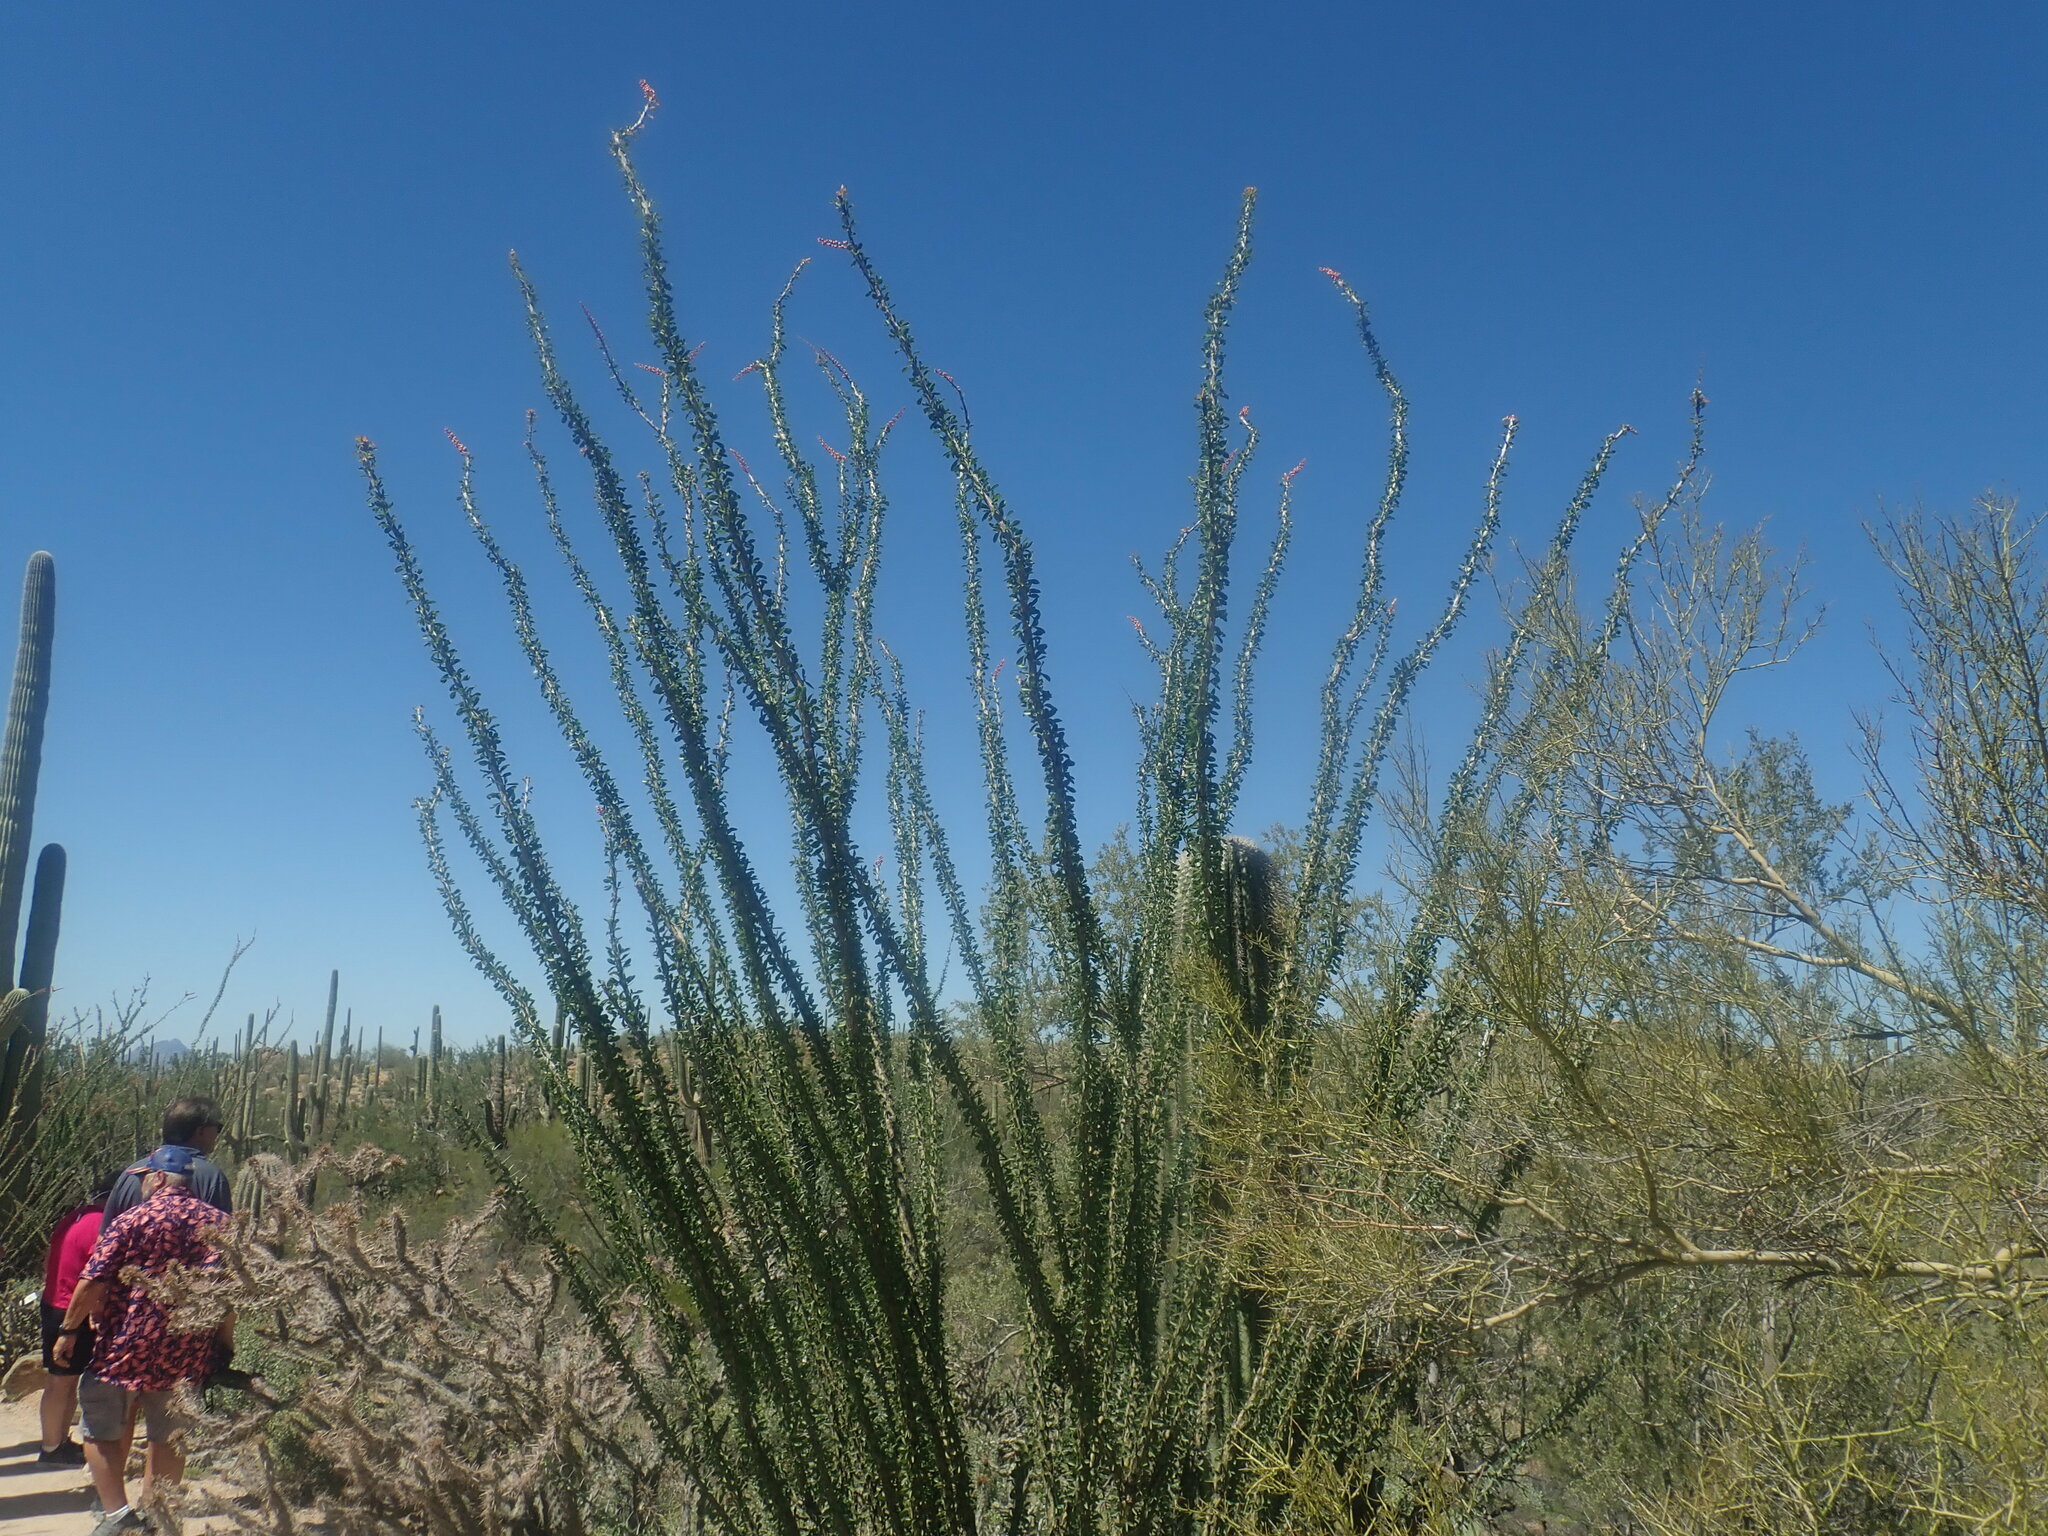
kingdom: Plantae
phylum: Tracheophyta
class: Magnoliopsida
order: Ericales
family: Fouquieriaceae
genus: Fouquieria
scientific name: Fouquieria splendens
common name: Vine-cactus
